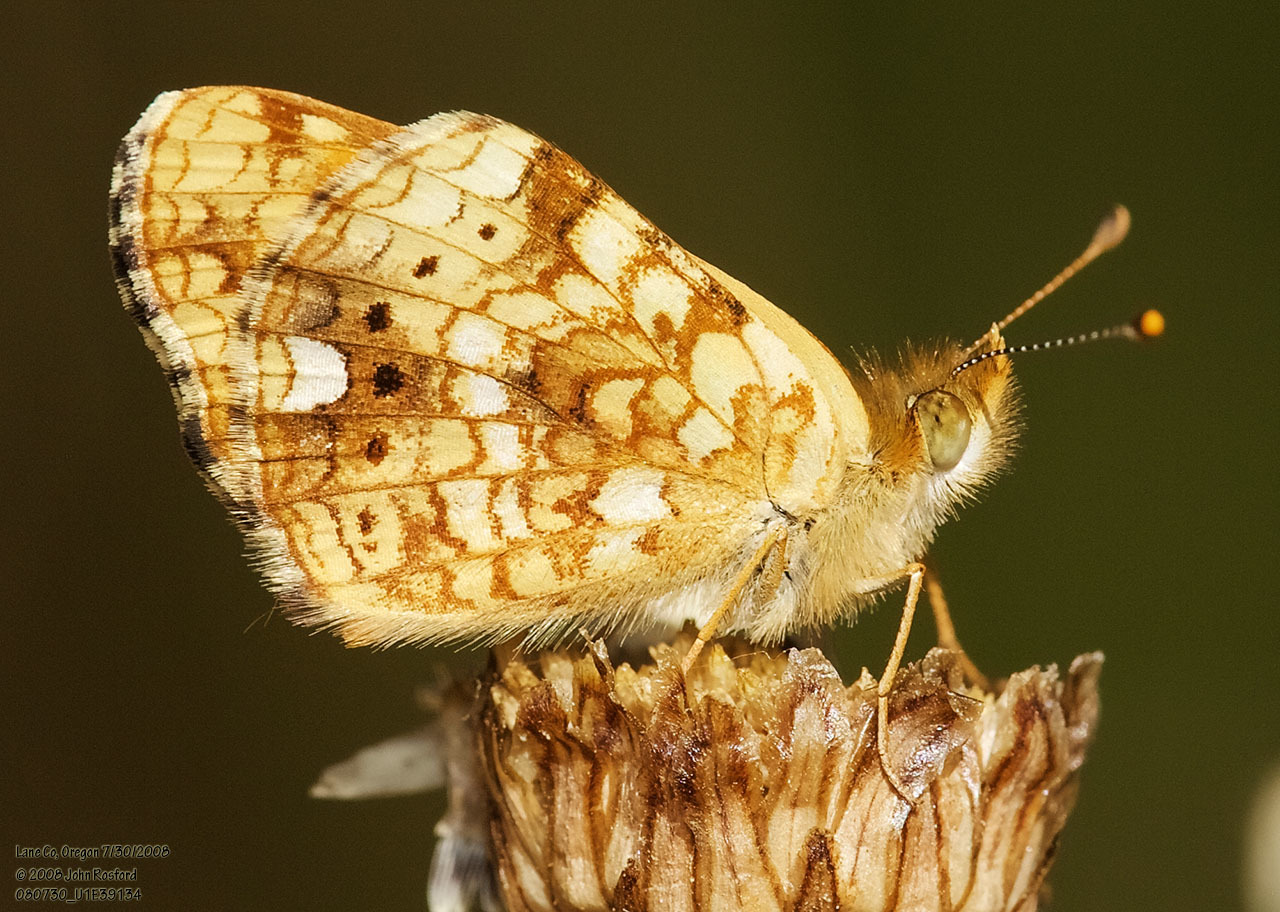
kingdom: Animalia
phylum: Arthropoda
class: Insecta
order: Lepidoptera
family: Nymphalidae
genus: Eresia
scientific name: Eresia aveyrona
